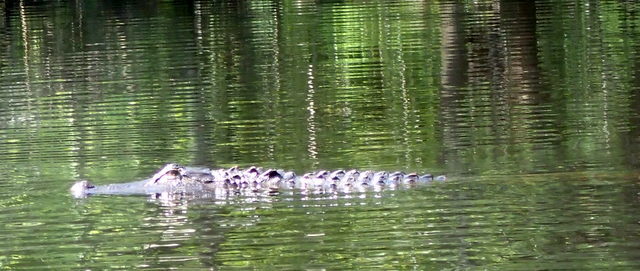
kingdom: Animalia
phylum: Chordata
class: Crocodylia
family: Alligatoridae
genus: Alligator
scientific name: Alligator mississippiensis
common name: American alligator
